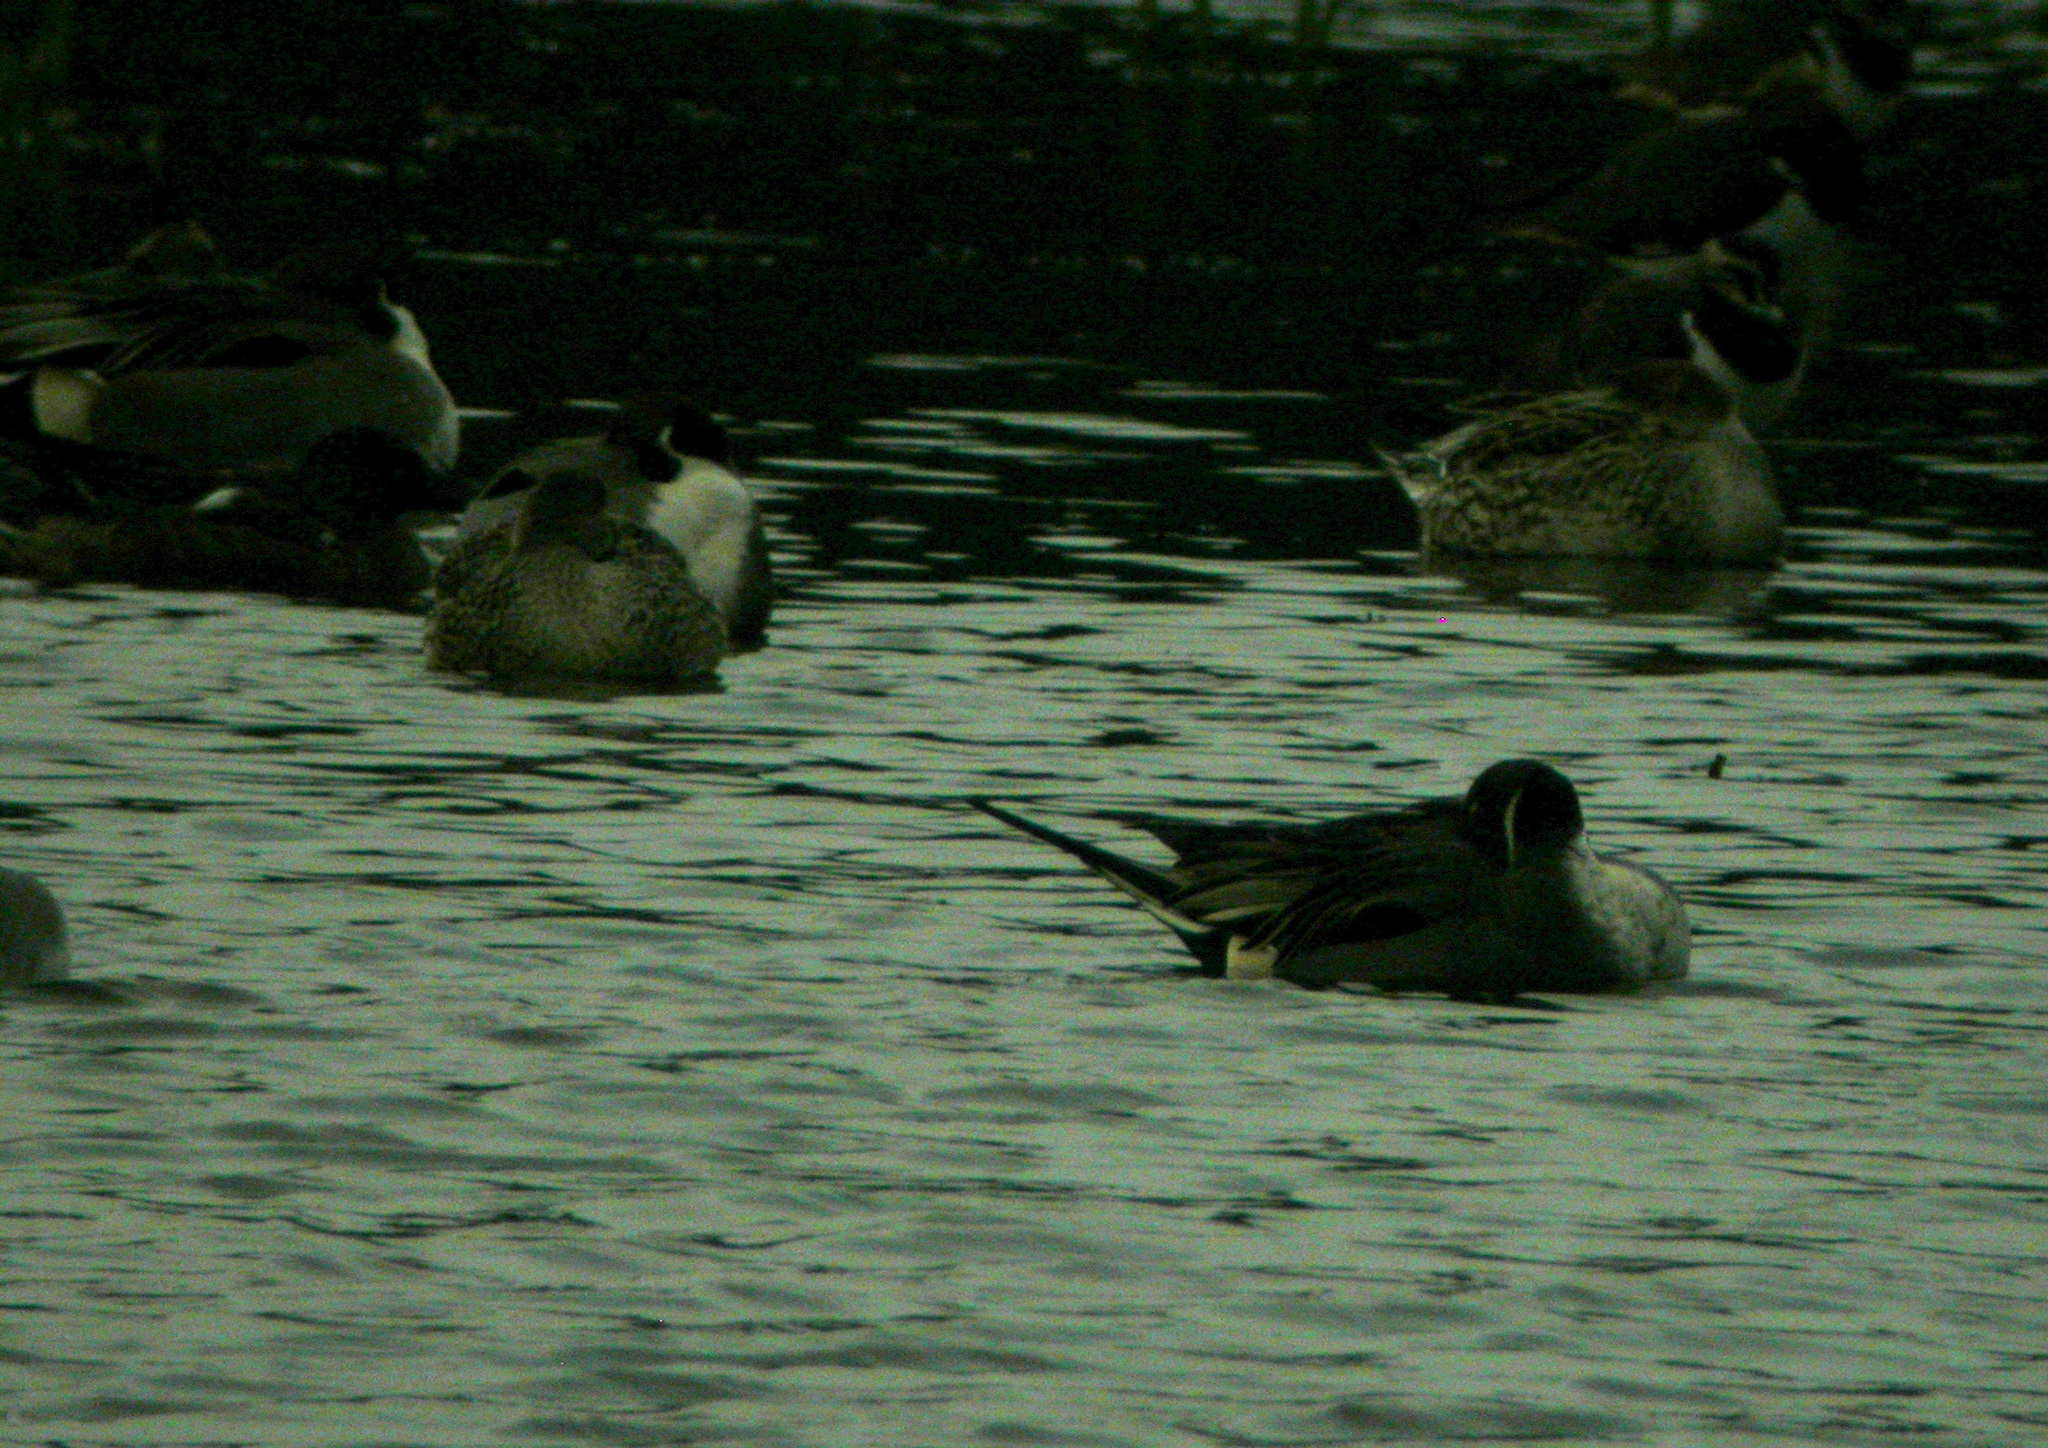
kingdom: Animalia
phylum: Chordata
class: Aves
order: Anseriformes
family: Anatidae
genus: Anas
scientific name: Anas acuta
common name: Northern pintail
